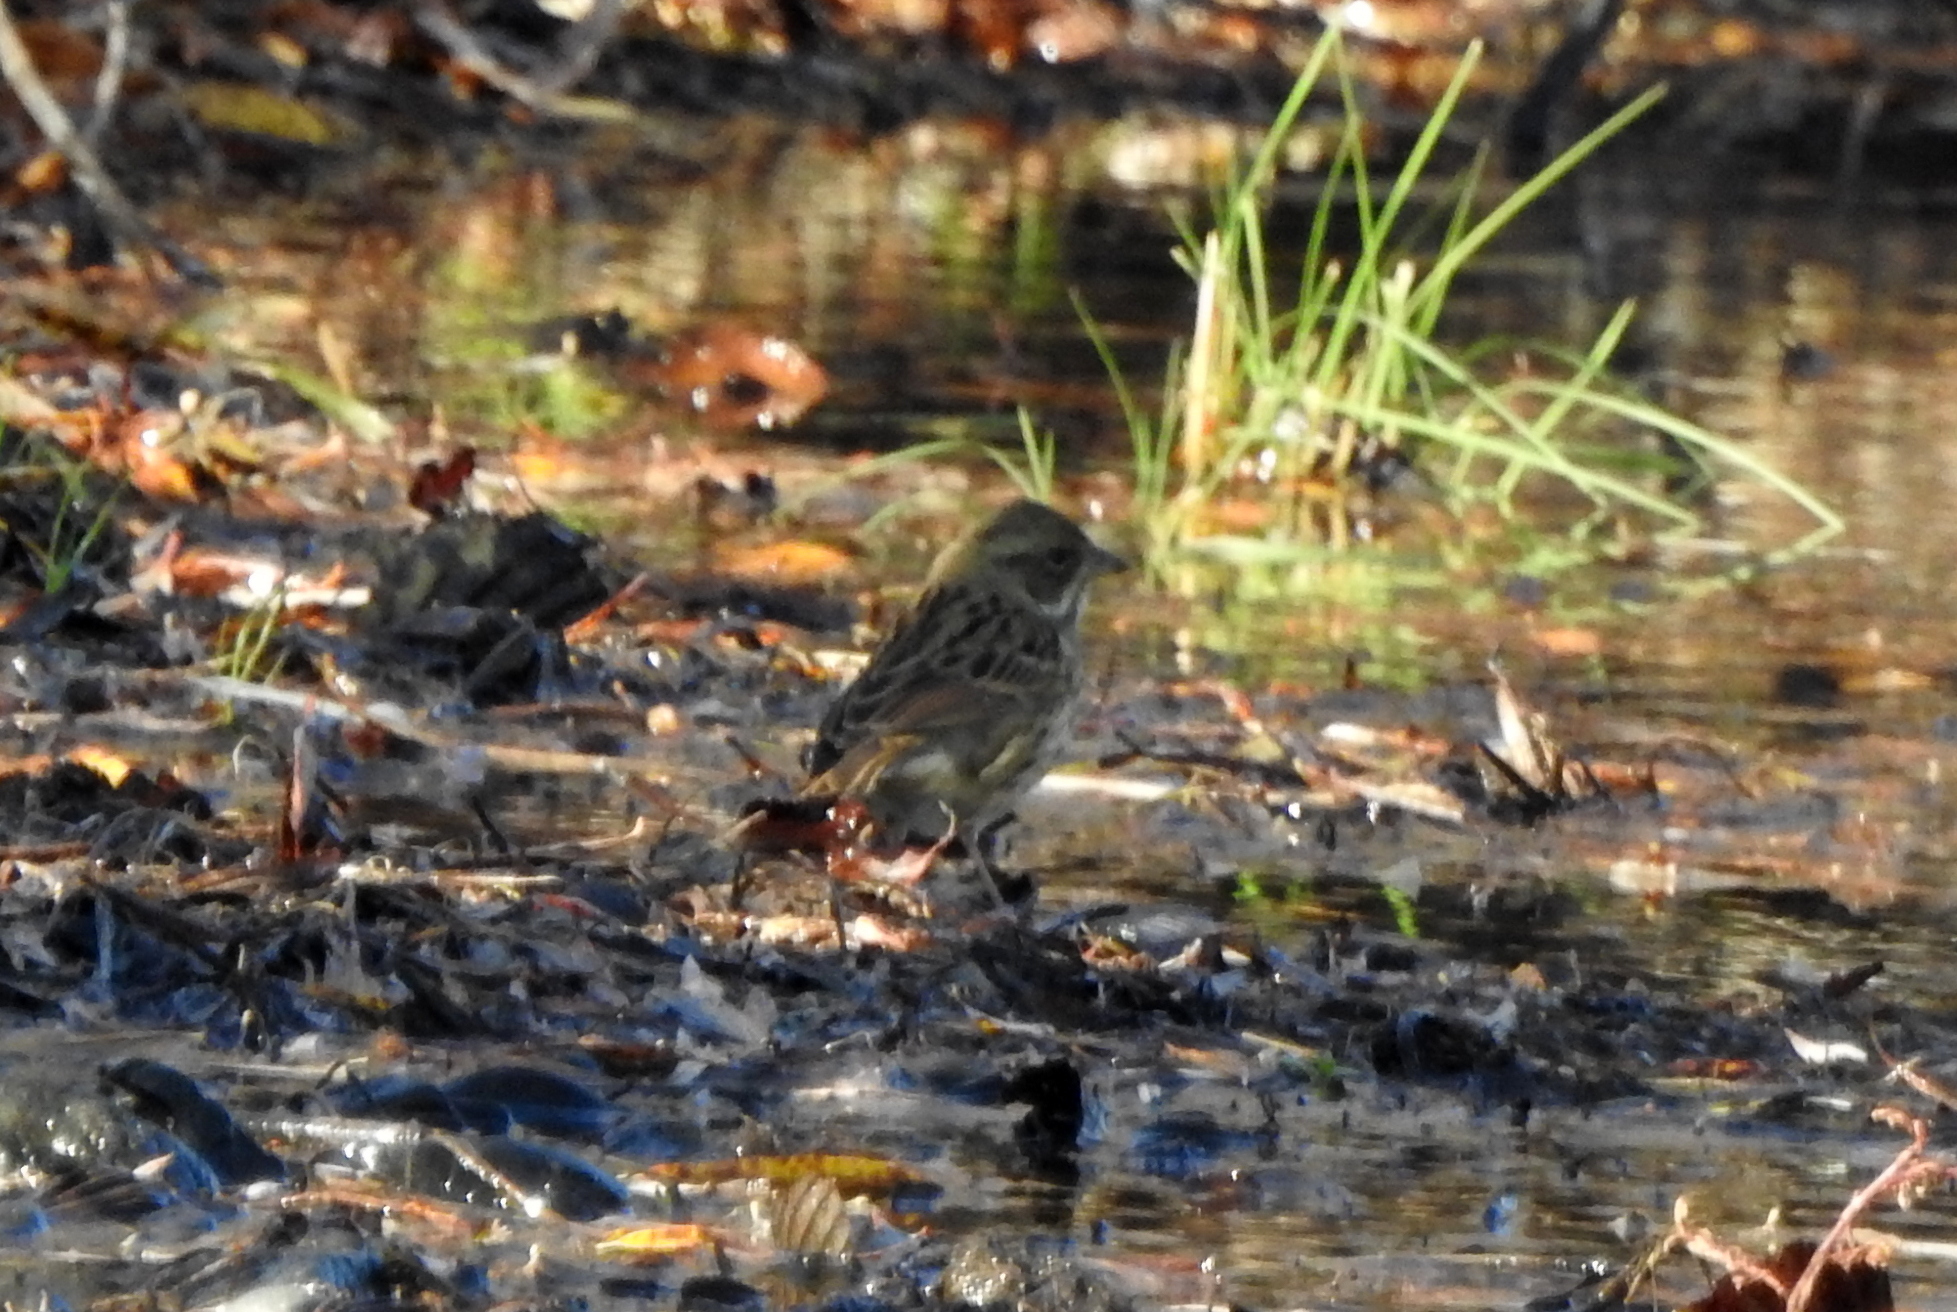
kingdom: Animalia
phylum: Chordata
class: Aves
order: Passeriformes
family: Emberizidae
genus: Emberiza
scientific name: Emberiza spodocephala
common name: Black-faced bunting
